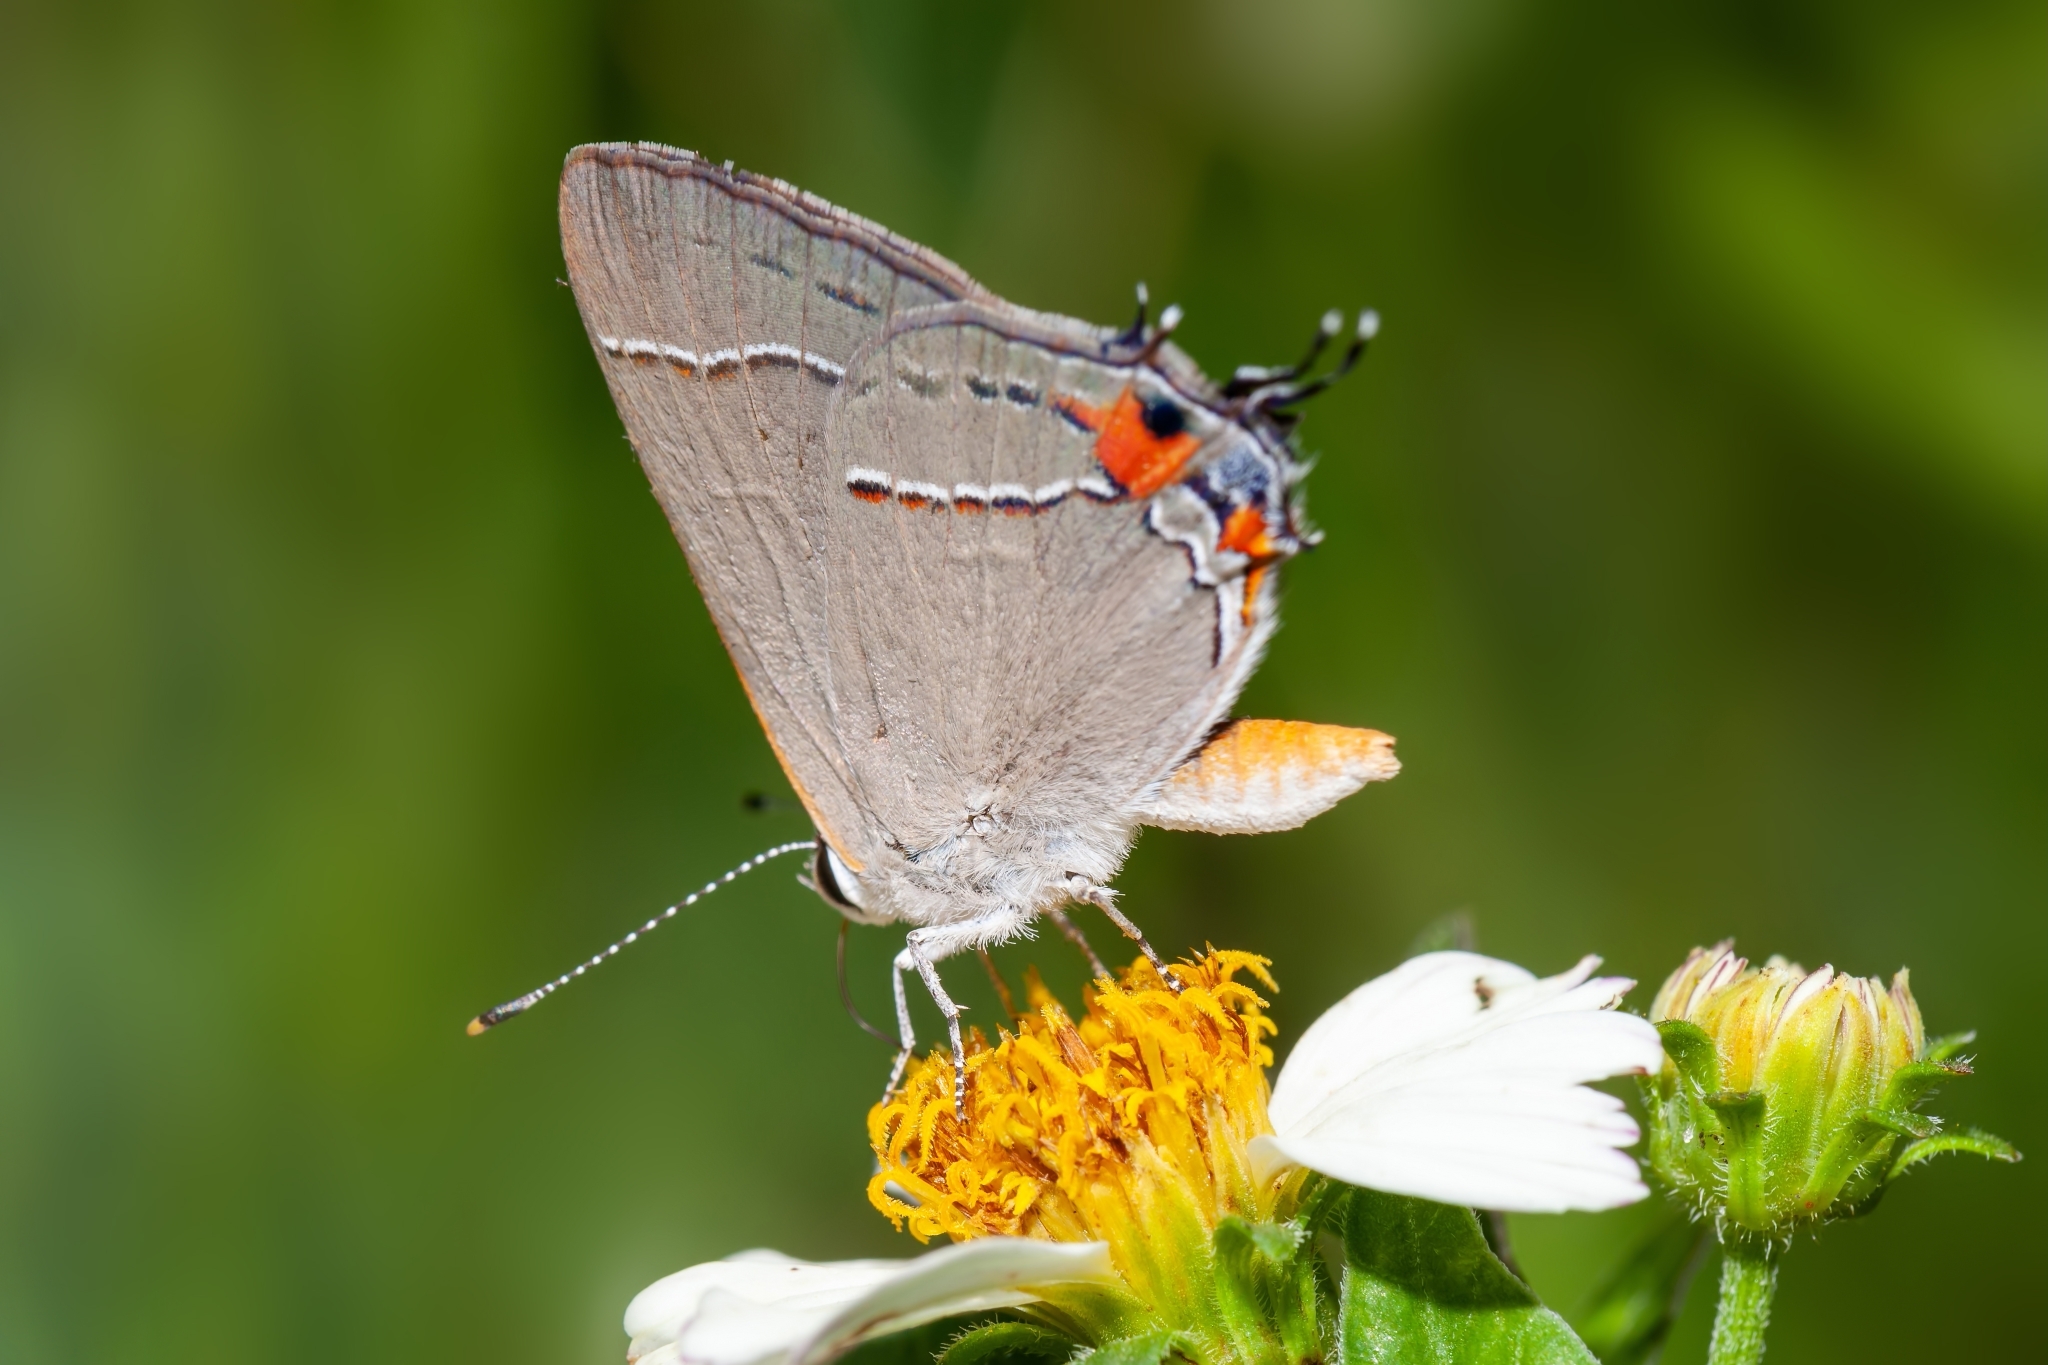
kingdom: Animalia
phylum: Arthropoda
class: Insecta
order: Lepidoptera
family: Lycaenidae
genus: Strymon
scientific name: Strymon melinus
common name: Gray hairstreak
